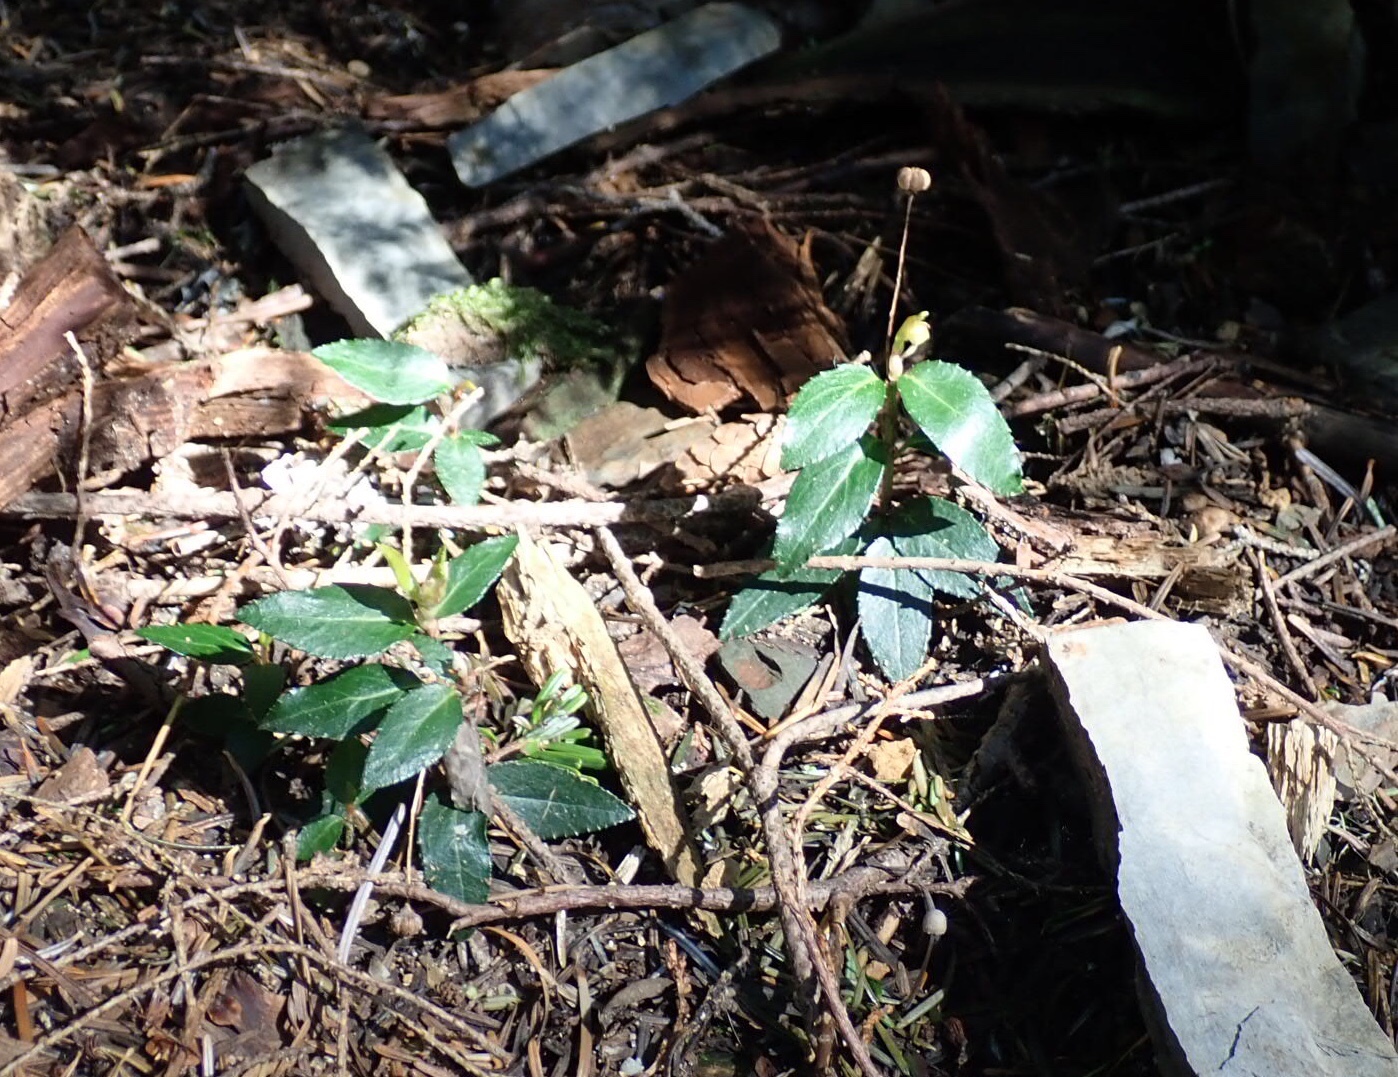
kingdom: Plantae
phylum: Tracheophyta
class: Magnoliopsida
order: Ericales
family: Ericaceae
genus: Chimaphila
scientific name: Chimaphila menziesii
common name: Menzies' pipsissewa
